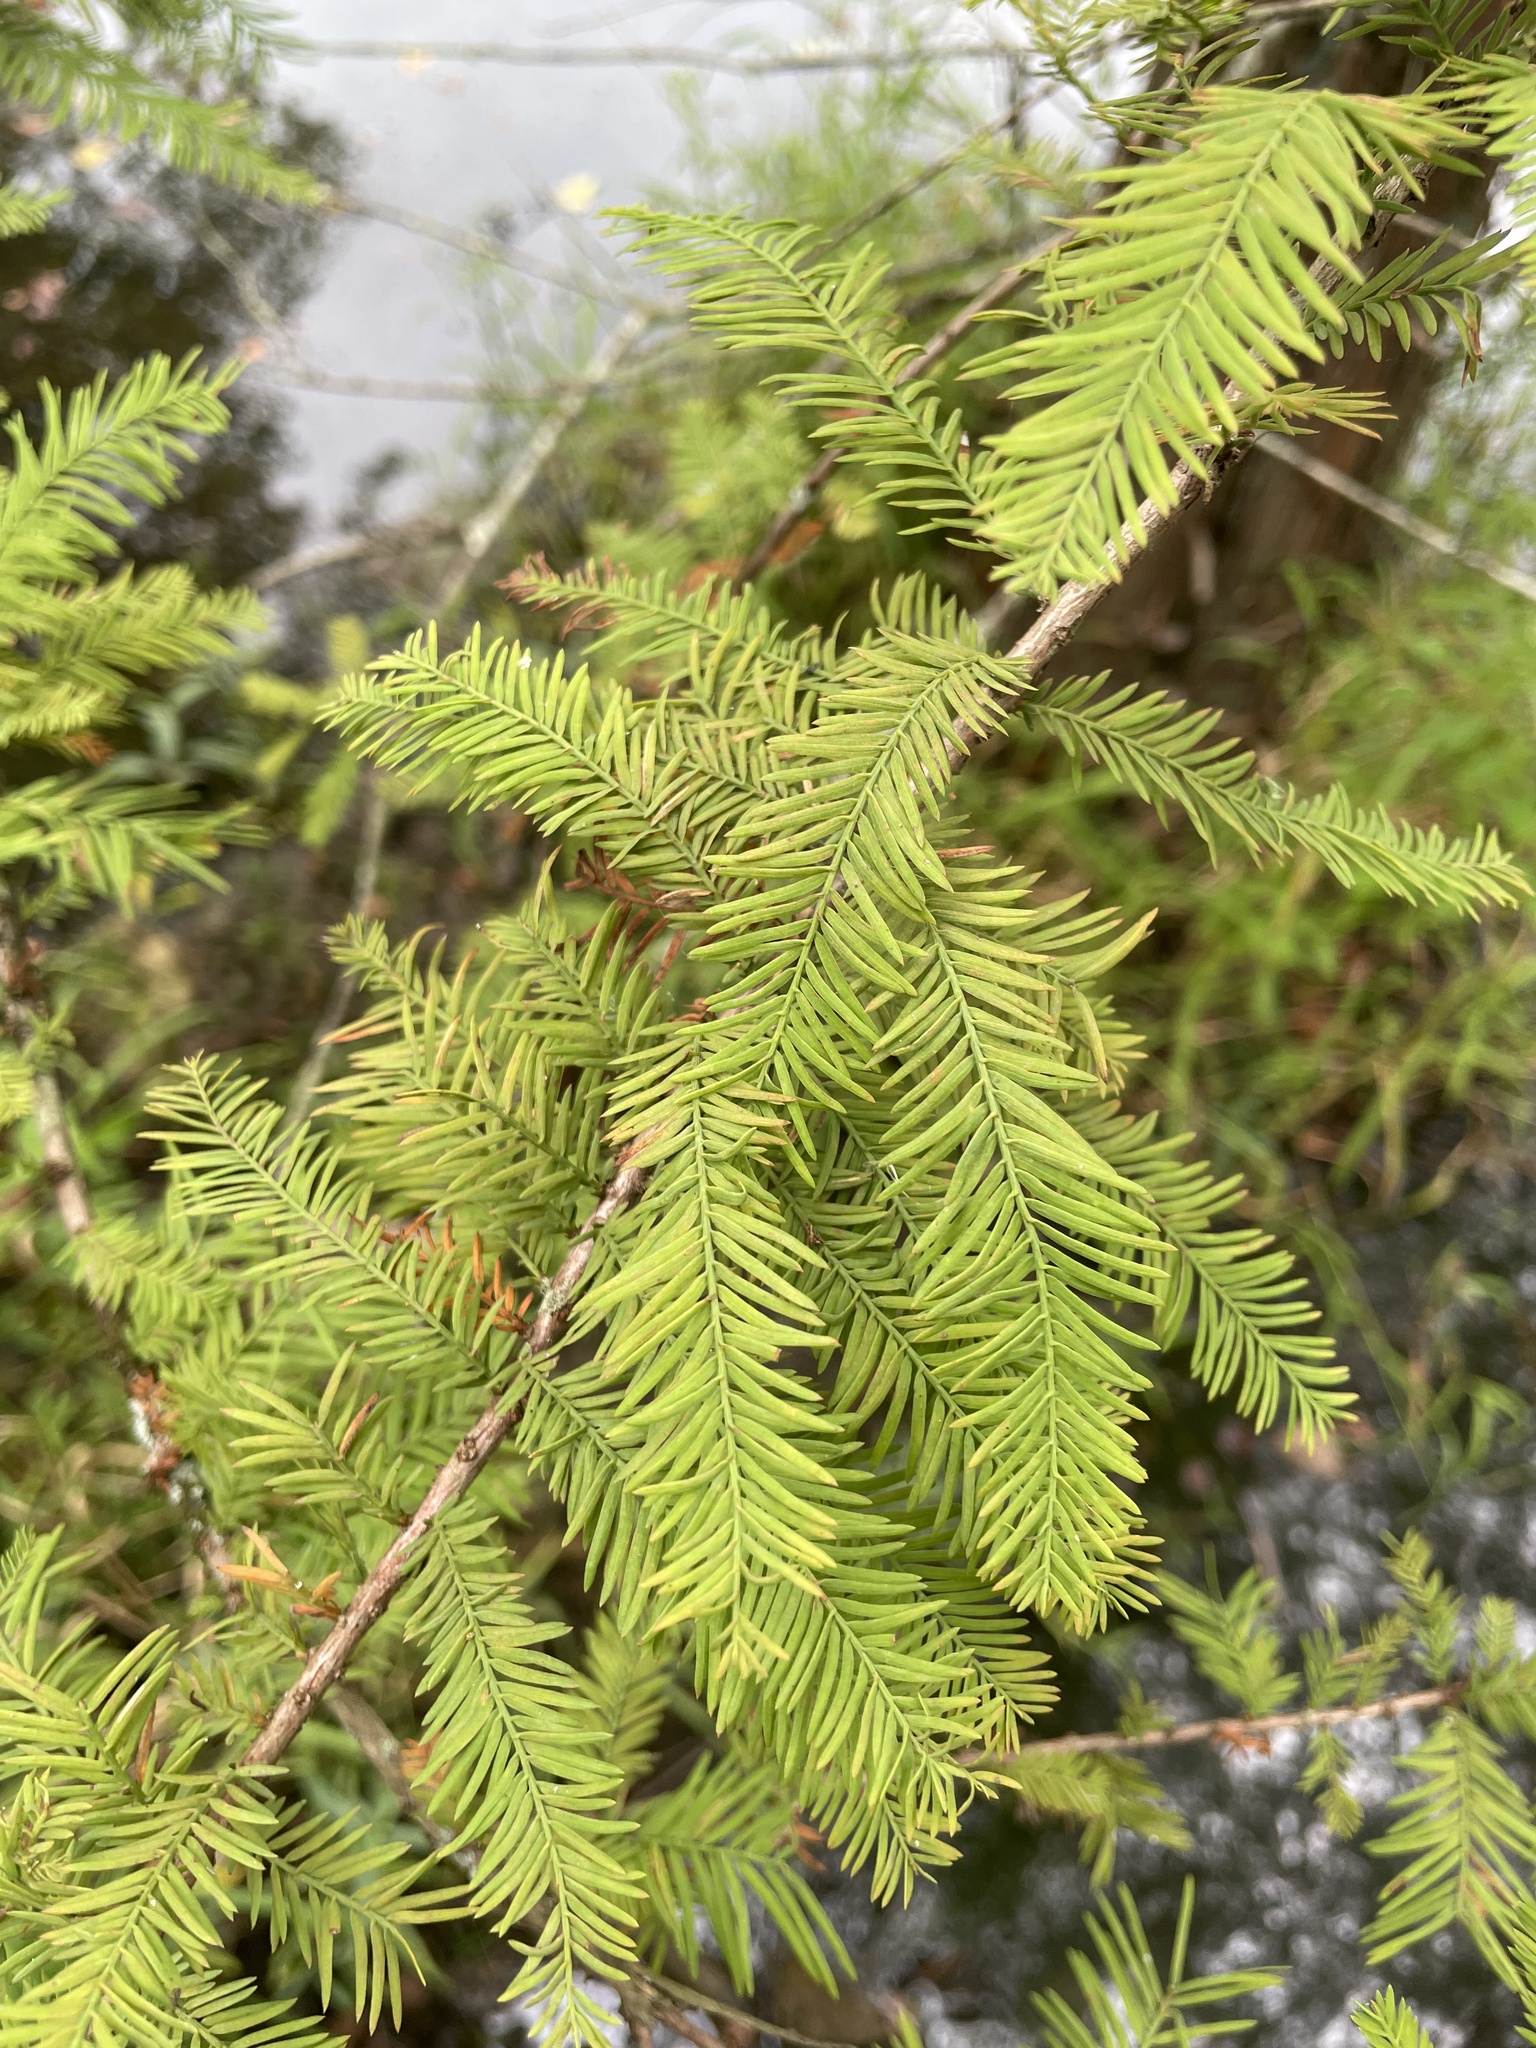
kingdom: Plantae
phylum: Tracheophyta
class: Pinopsida
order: Pinales
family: Cupressaceae
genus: Taxodium
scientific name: Taxodium distichum
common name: Bald cypress
